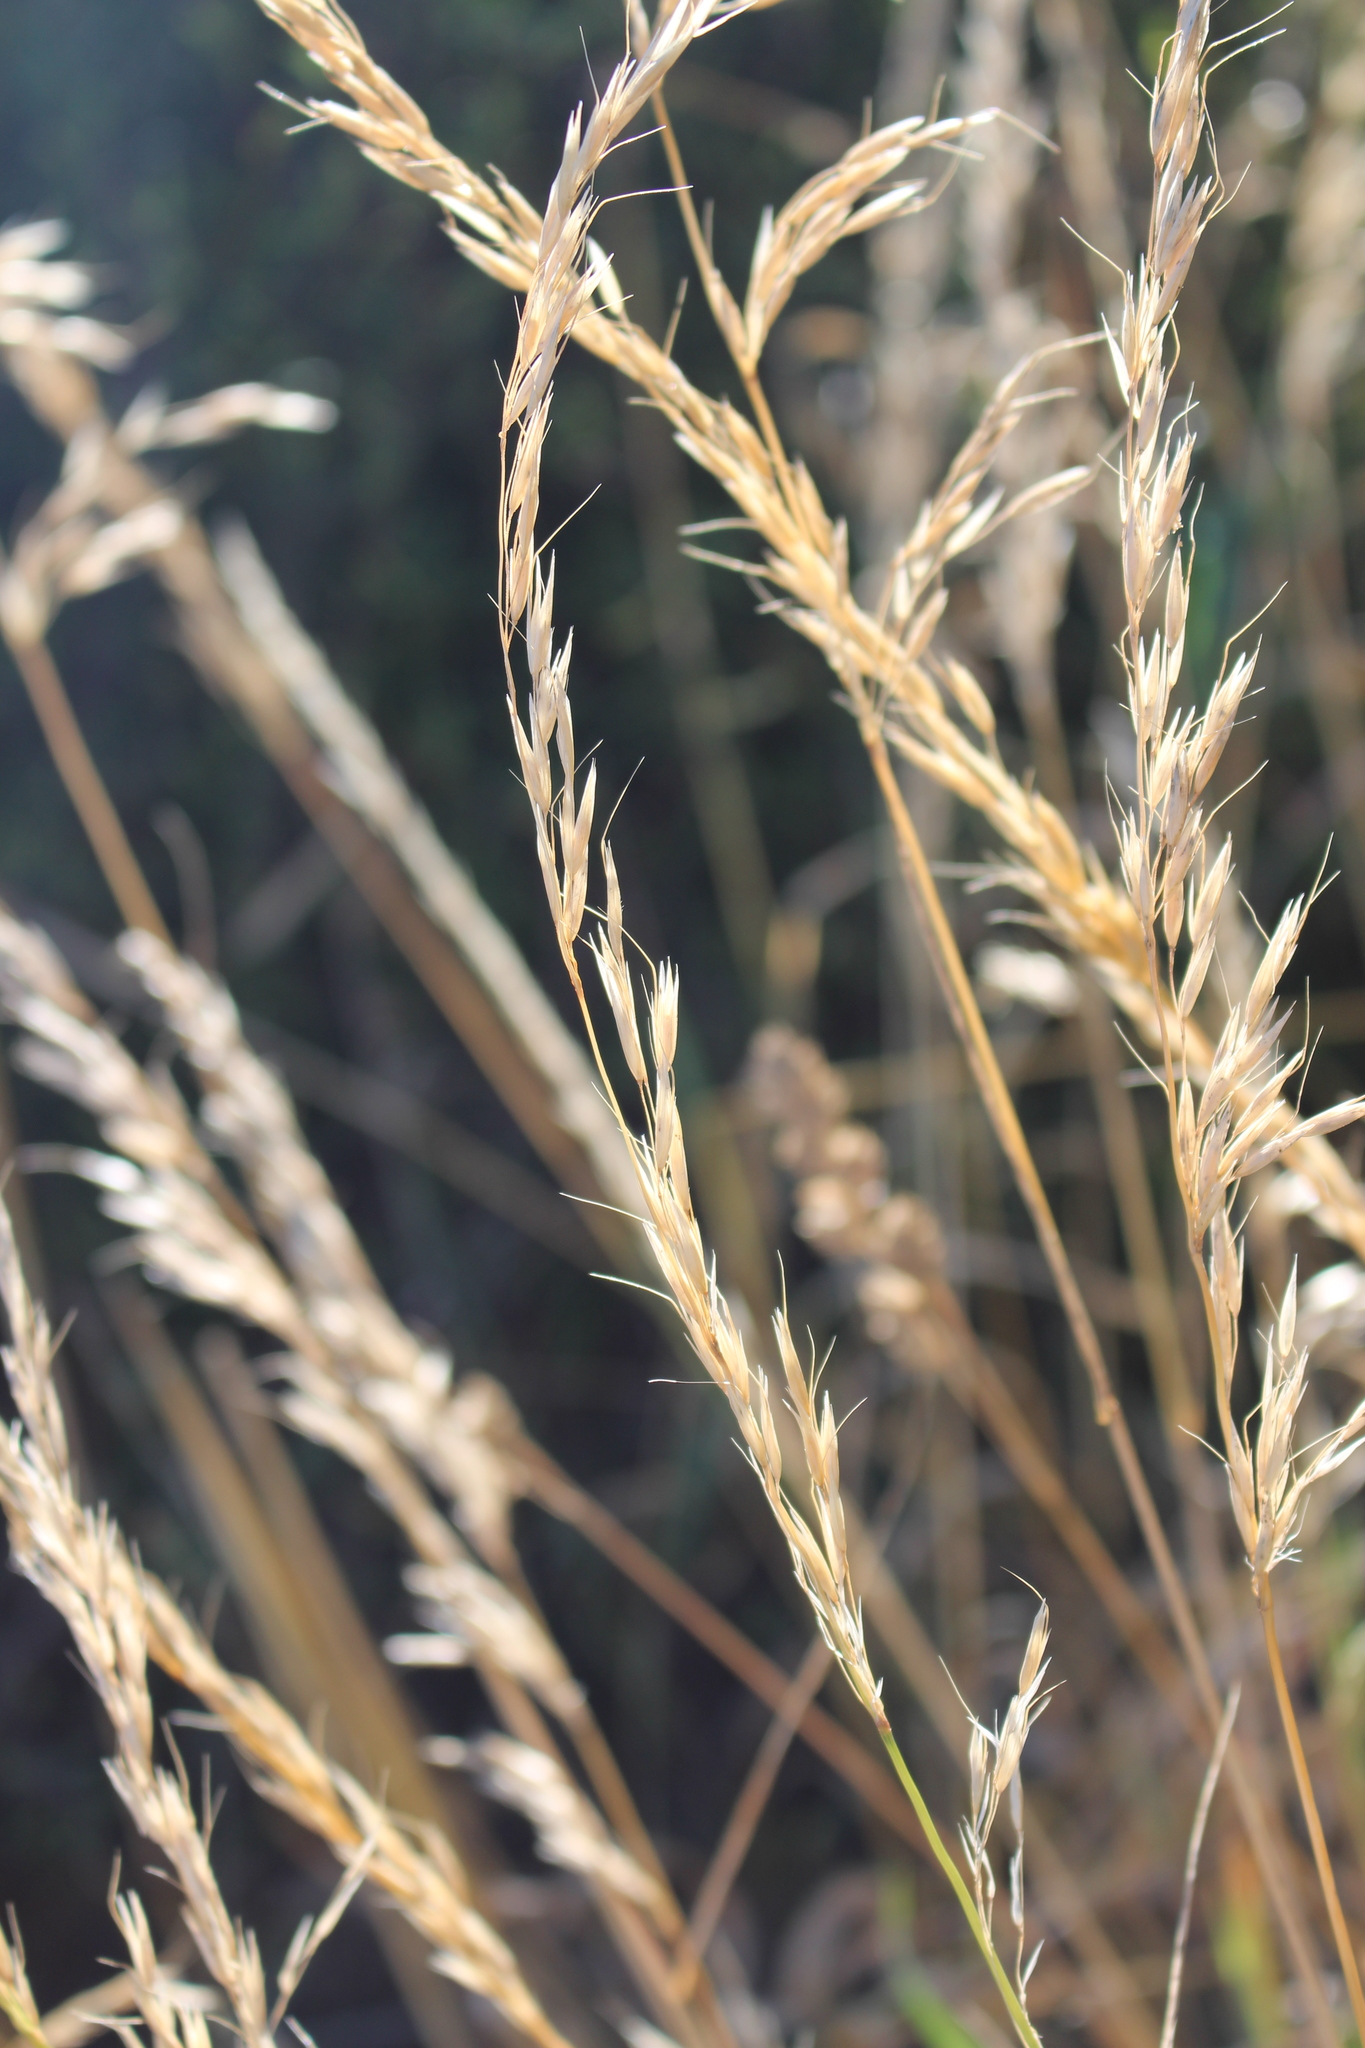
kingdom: Plantae
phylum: Tracheophyta
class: Liliopsida
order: Poales
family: Poaceae
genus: Arrhenatherum
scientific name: Arrhenatherum elatius
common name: Tall oatgrass
